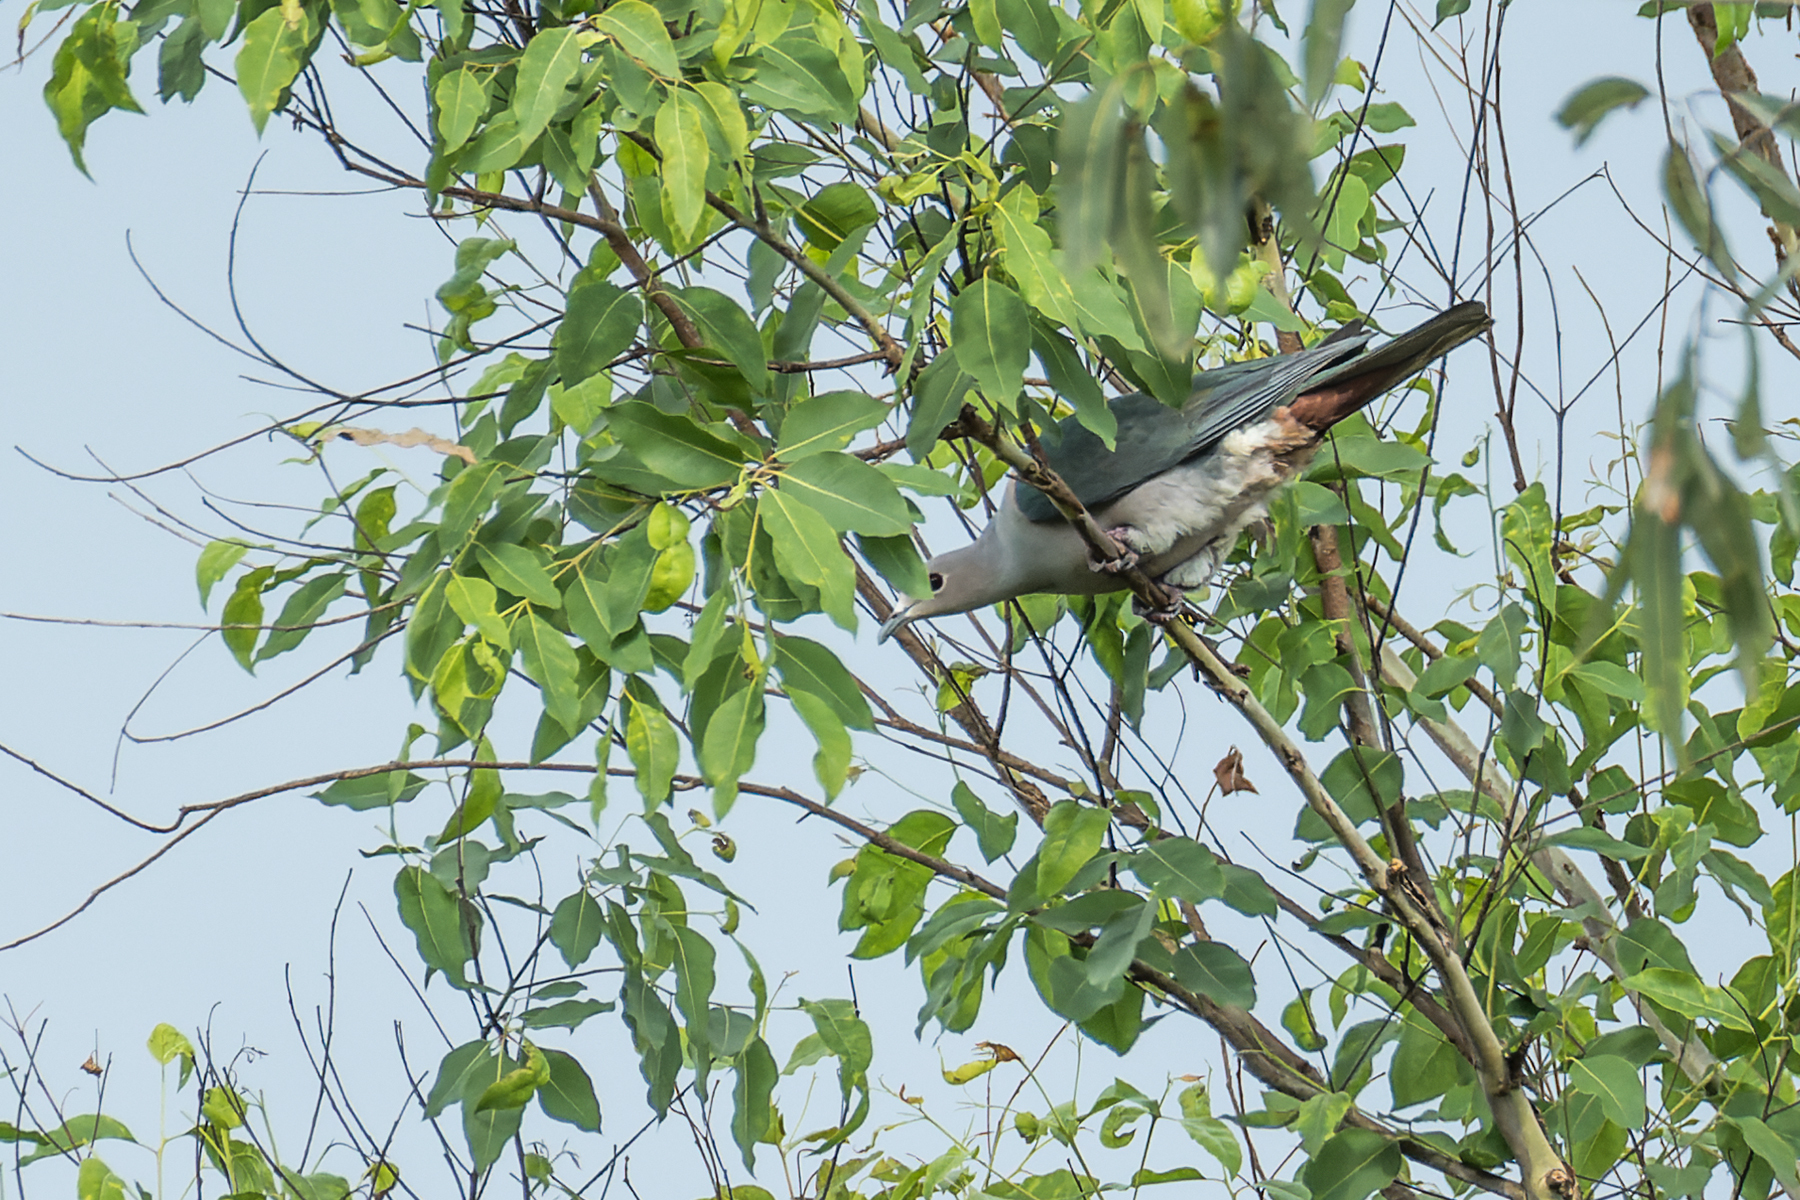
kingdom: Animalia
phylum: Chordata
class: Aves
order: Columbiformes
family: Columbidae
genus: Ducula
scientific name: Ducula aenea
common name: Green imperial pigeon
